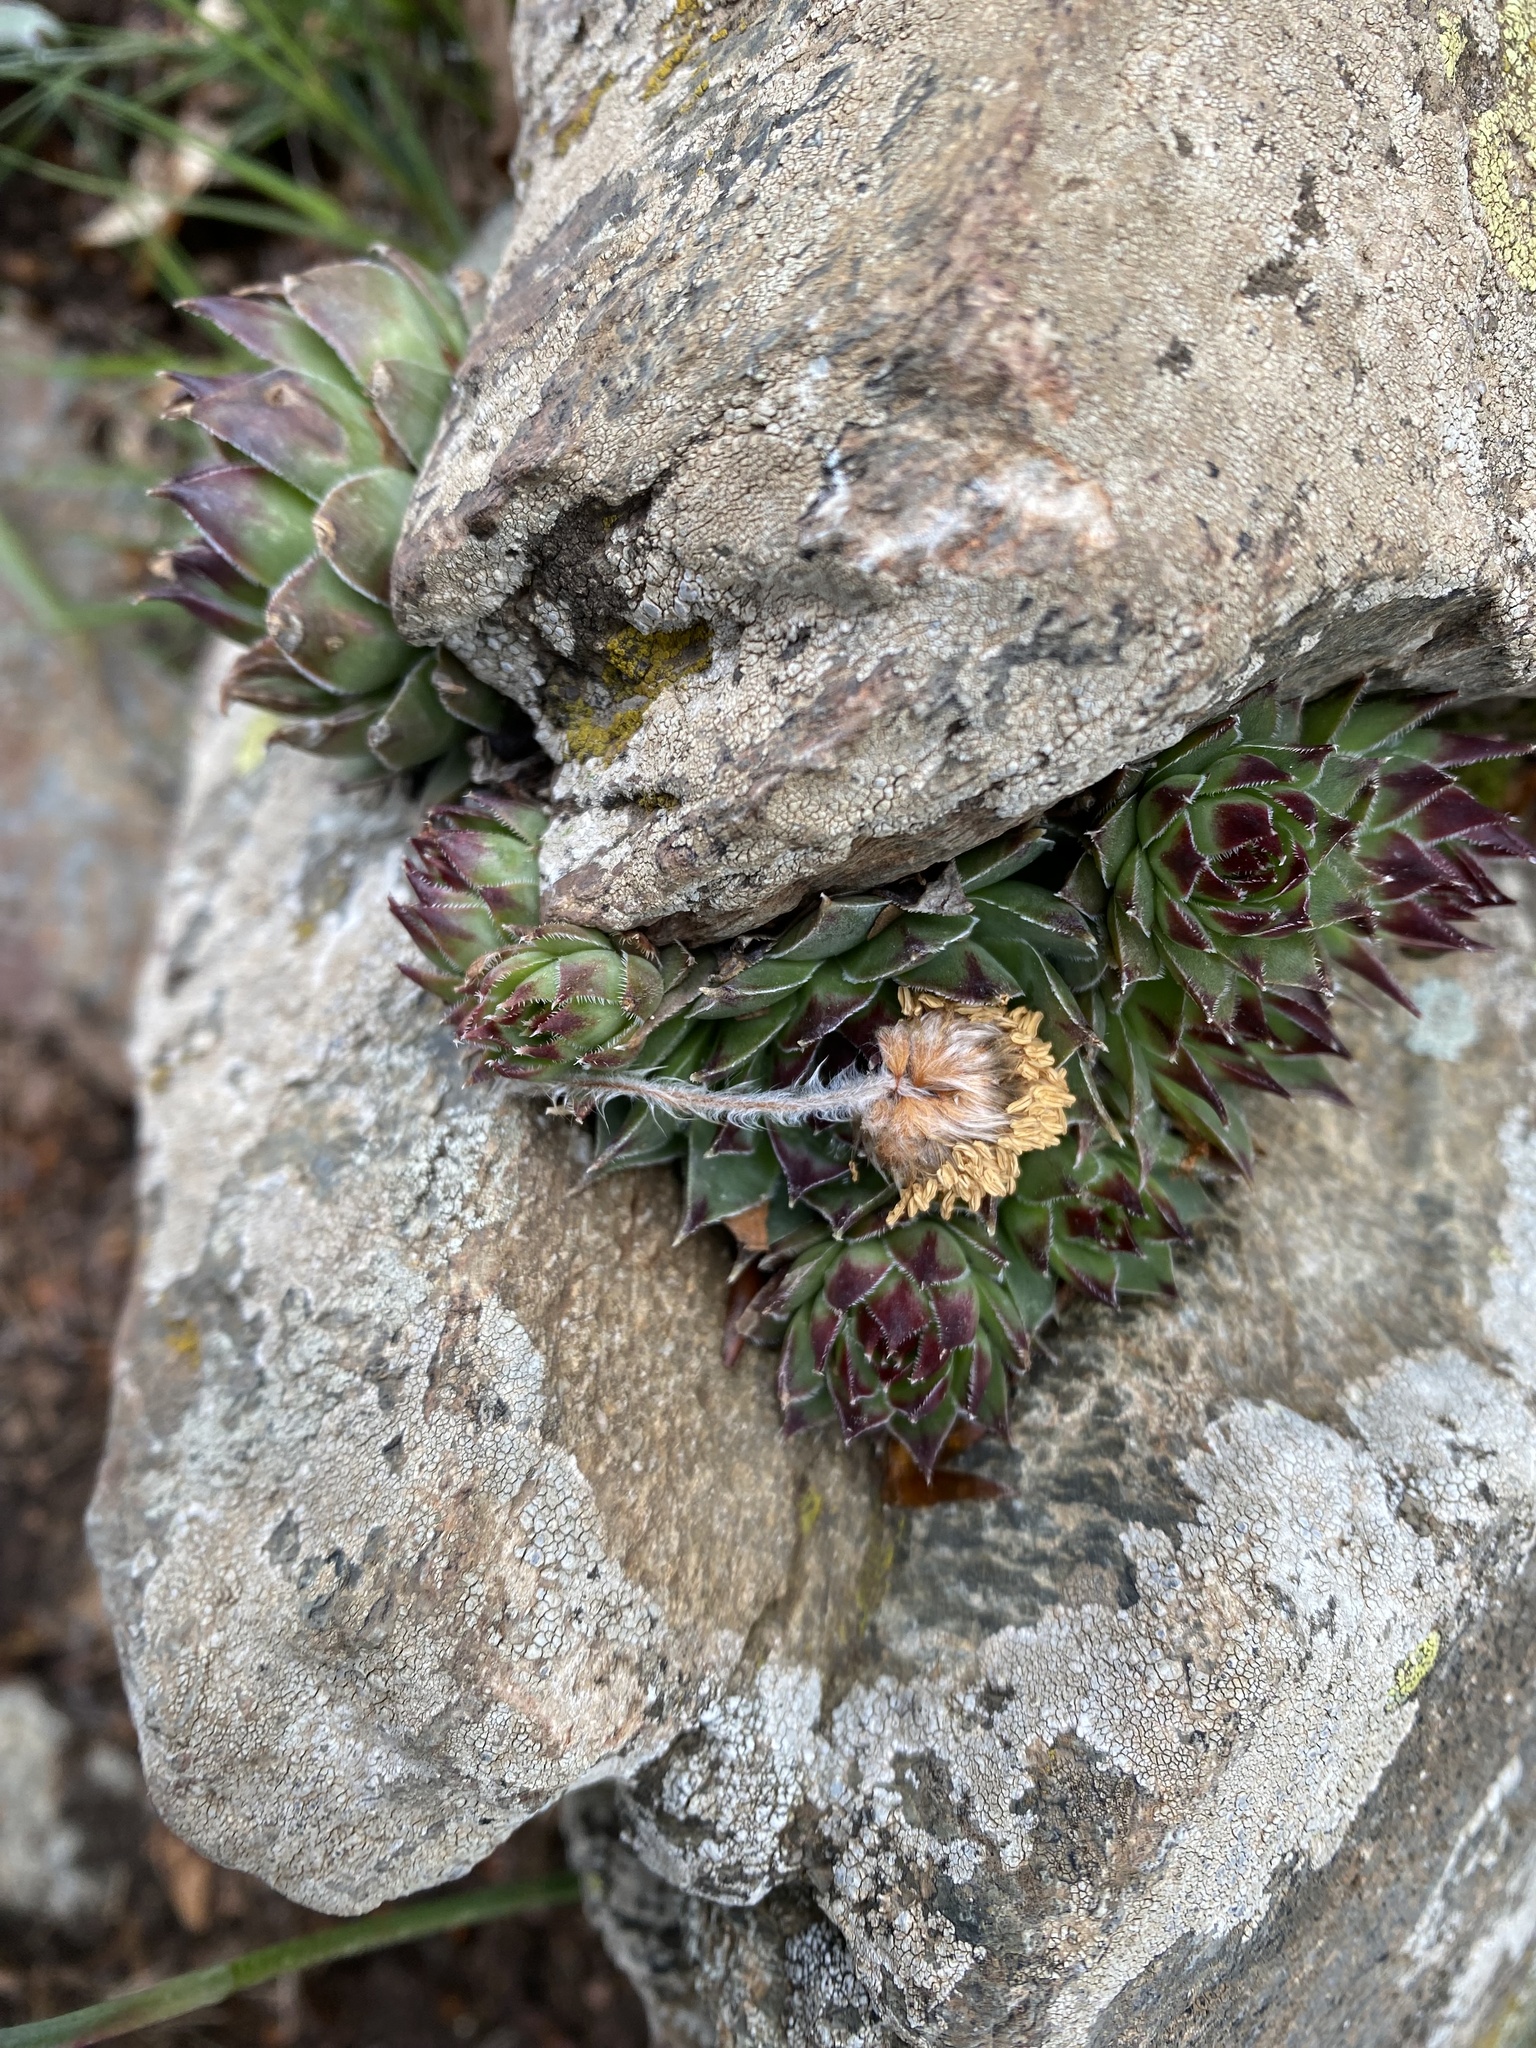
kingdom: Plantae
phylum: Tracheophyta
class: Magnoliopsida
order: Saxifragales
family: Crassulaceae
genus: Sempervivum
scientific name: Sempervivum tectorum
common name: House-leek
